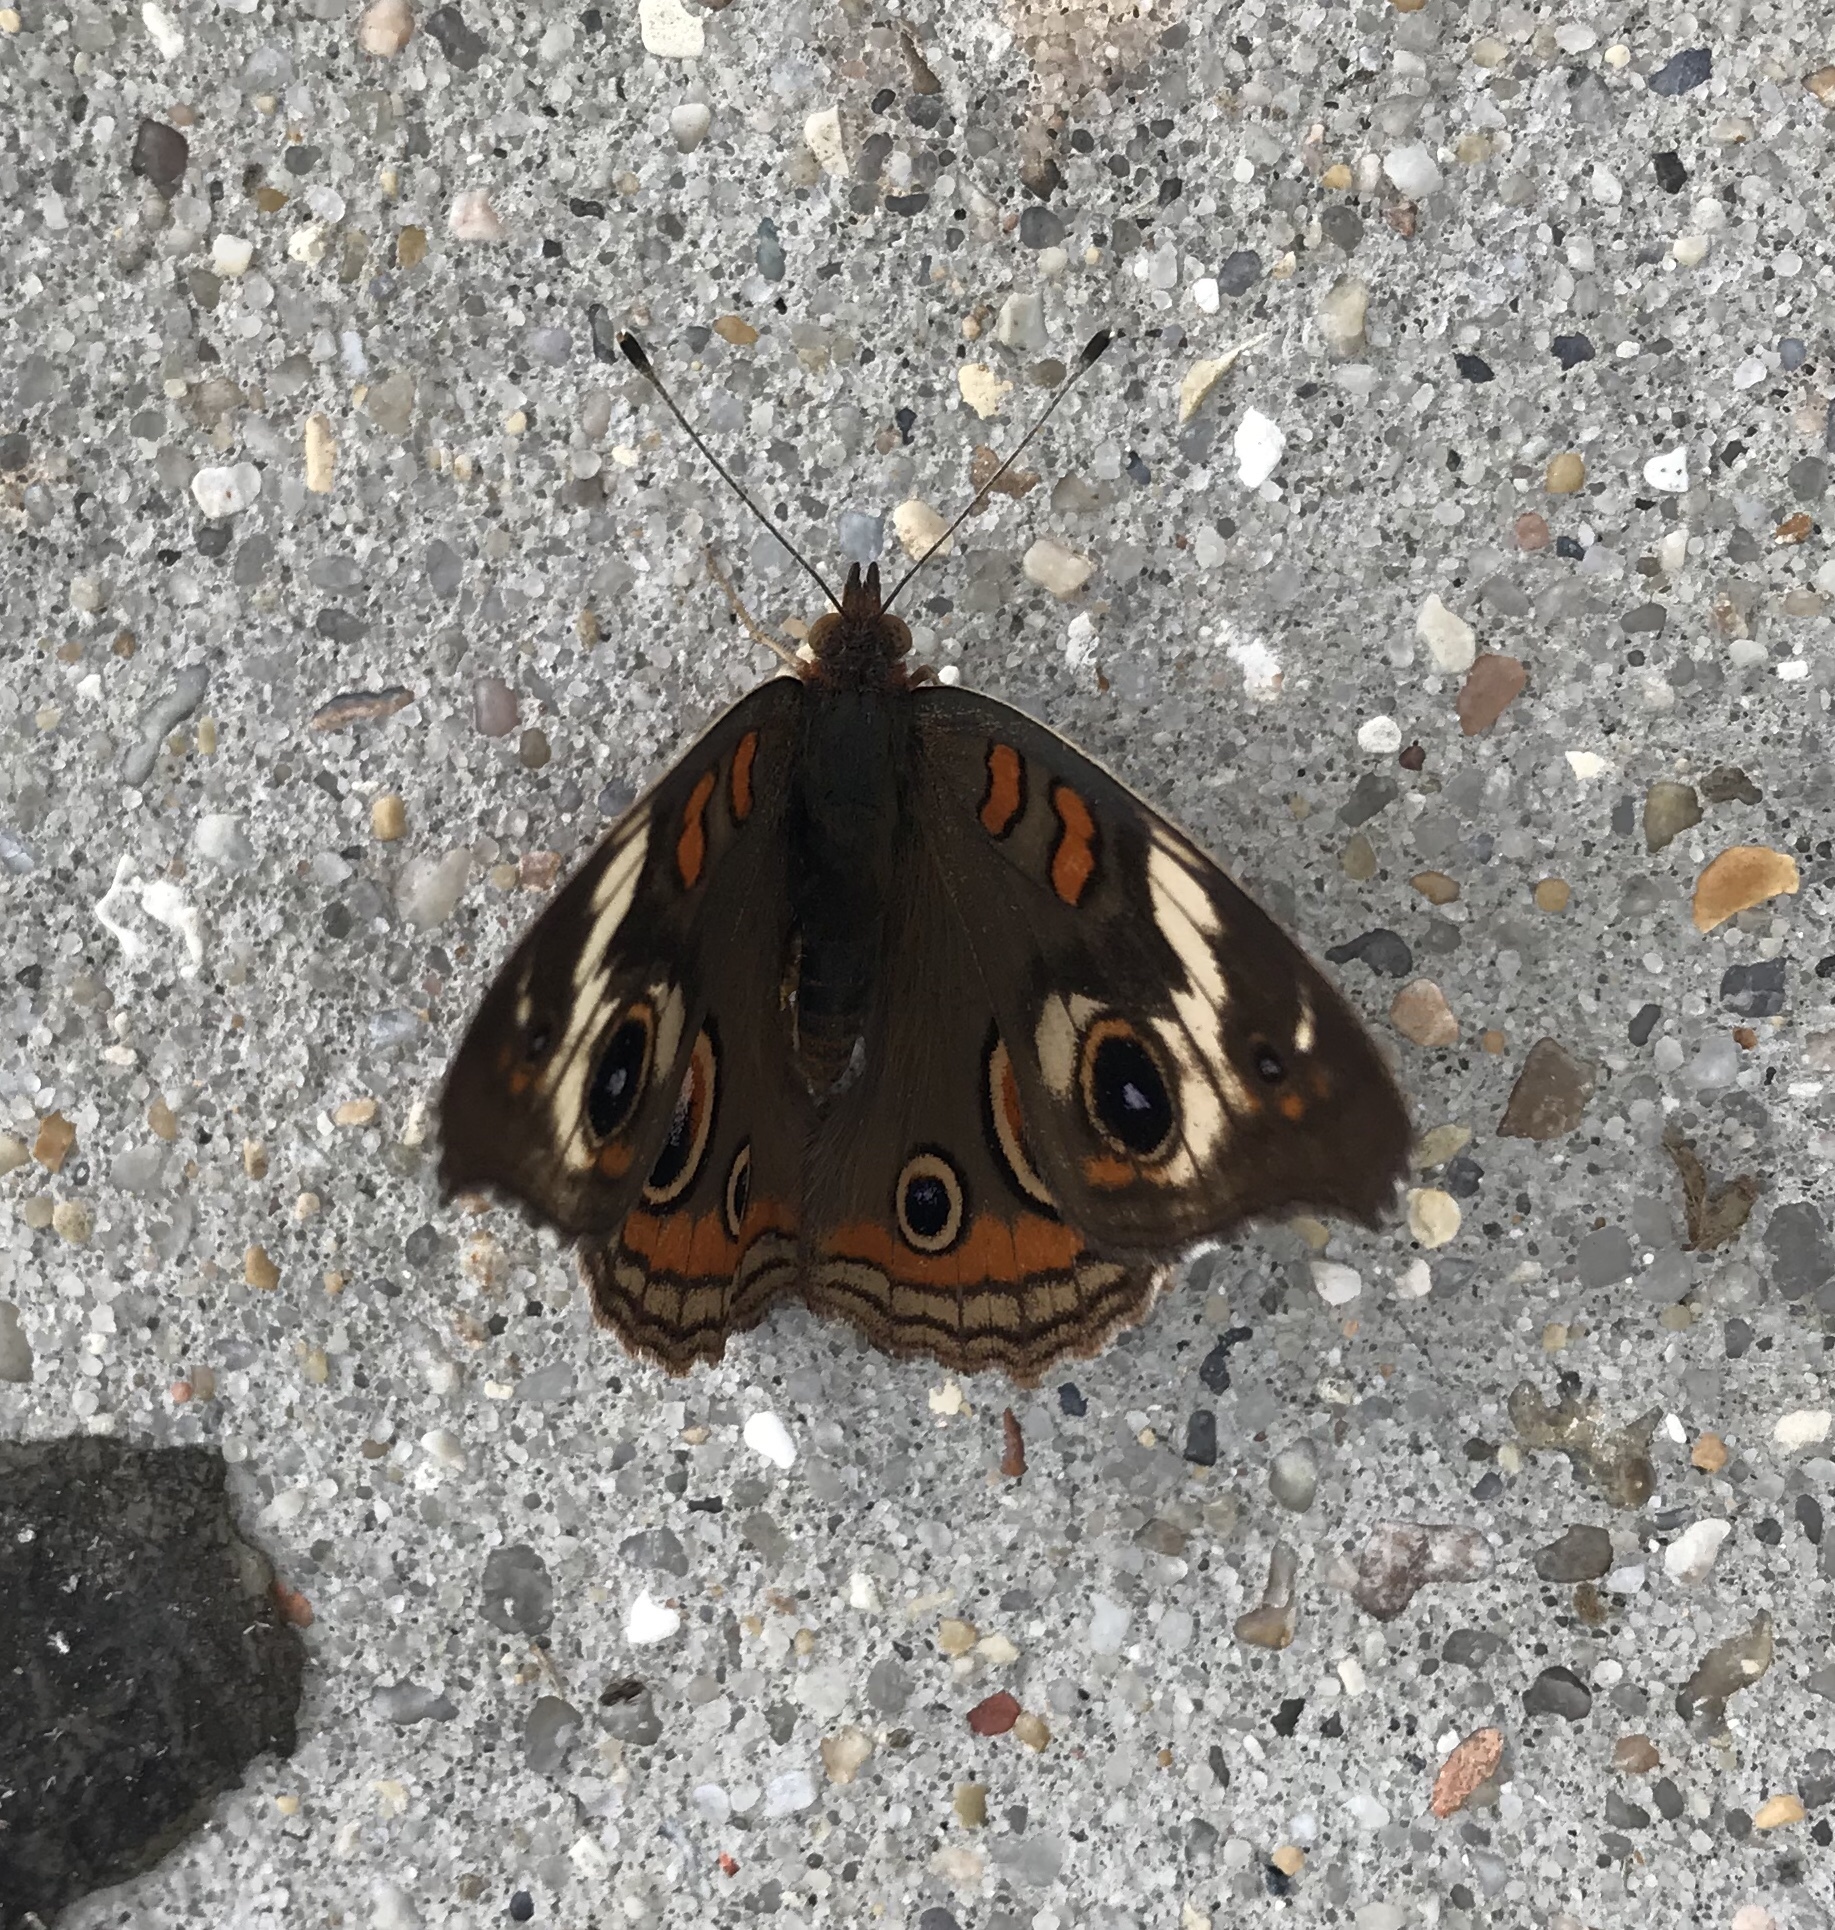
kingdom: Animalia
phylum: Arthropoda
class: Insecta
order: Lepidoptera
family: Nymphalidae
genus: Junonia
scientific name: Junonia coenia
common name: Common buckeye
